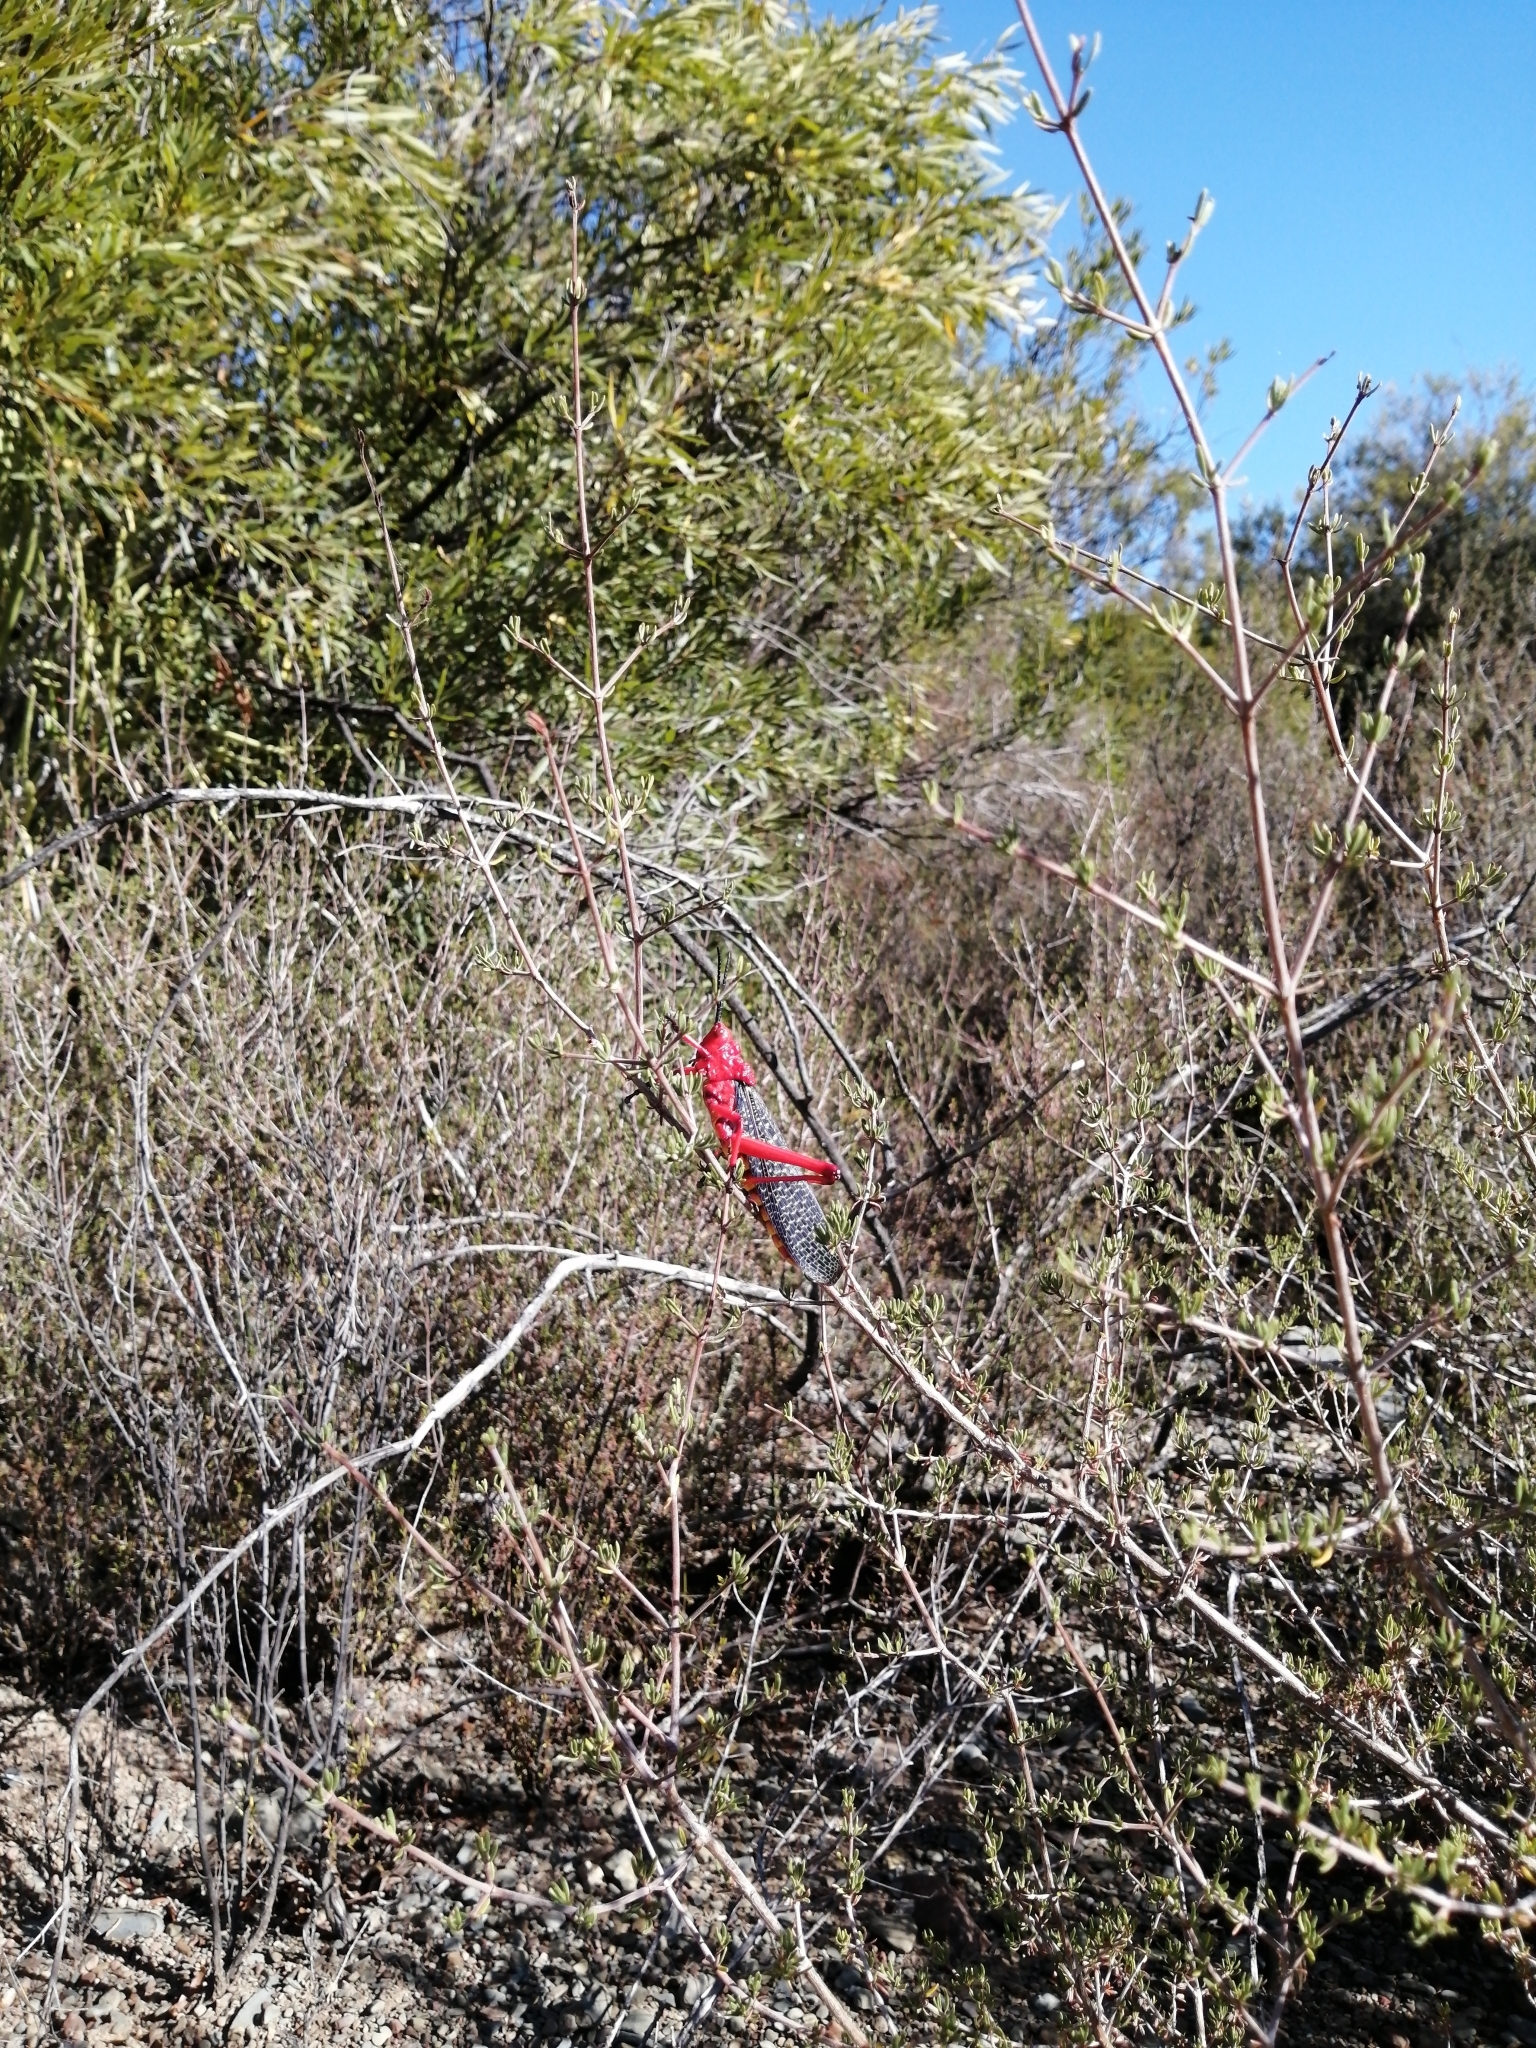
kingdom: Animalia
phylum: Arthropoda
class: Insecta
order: Orthoptera
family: Pyrgomorphidae
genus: Phymateus
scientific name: Phymateus morbillosus
